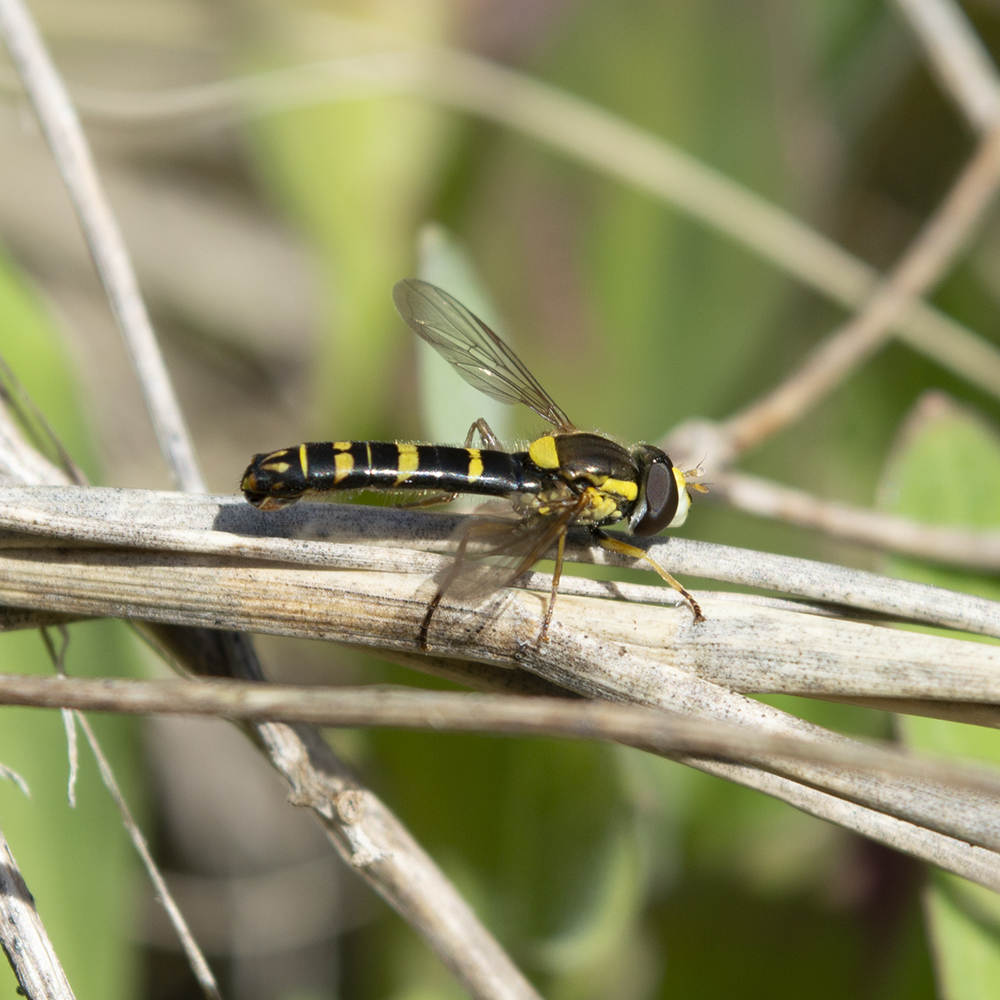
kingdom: Animalia
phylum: Arthropoda
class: Insecta
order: Diptera
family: Syrphidae
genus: Sphaerophoria
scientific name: Sphaerophoria scripta
